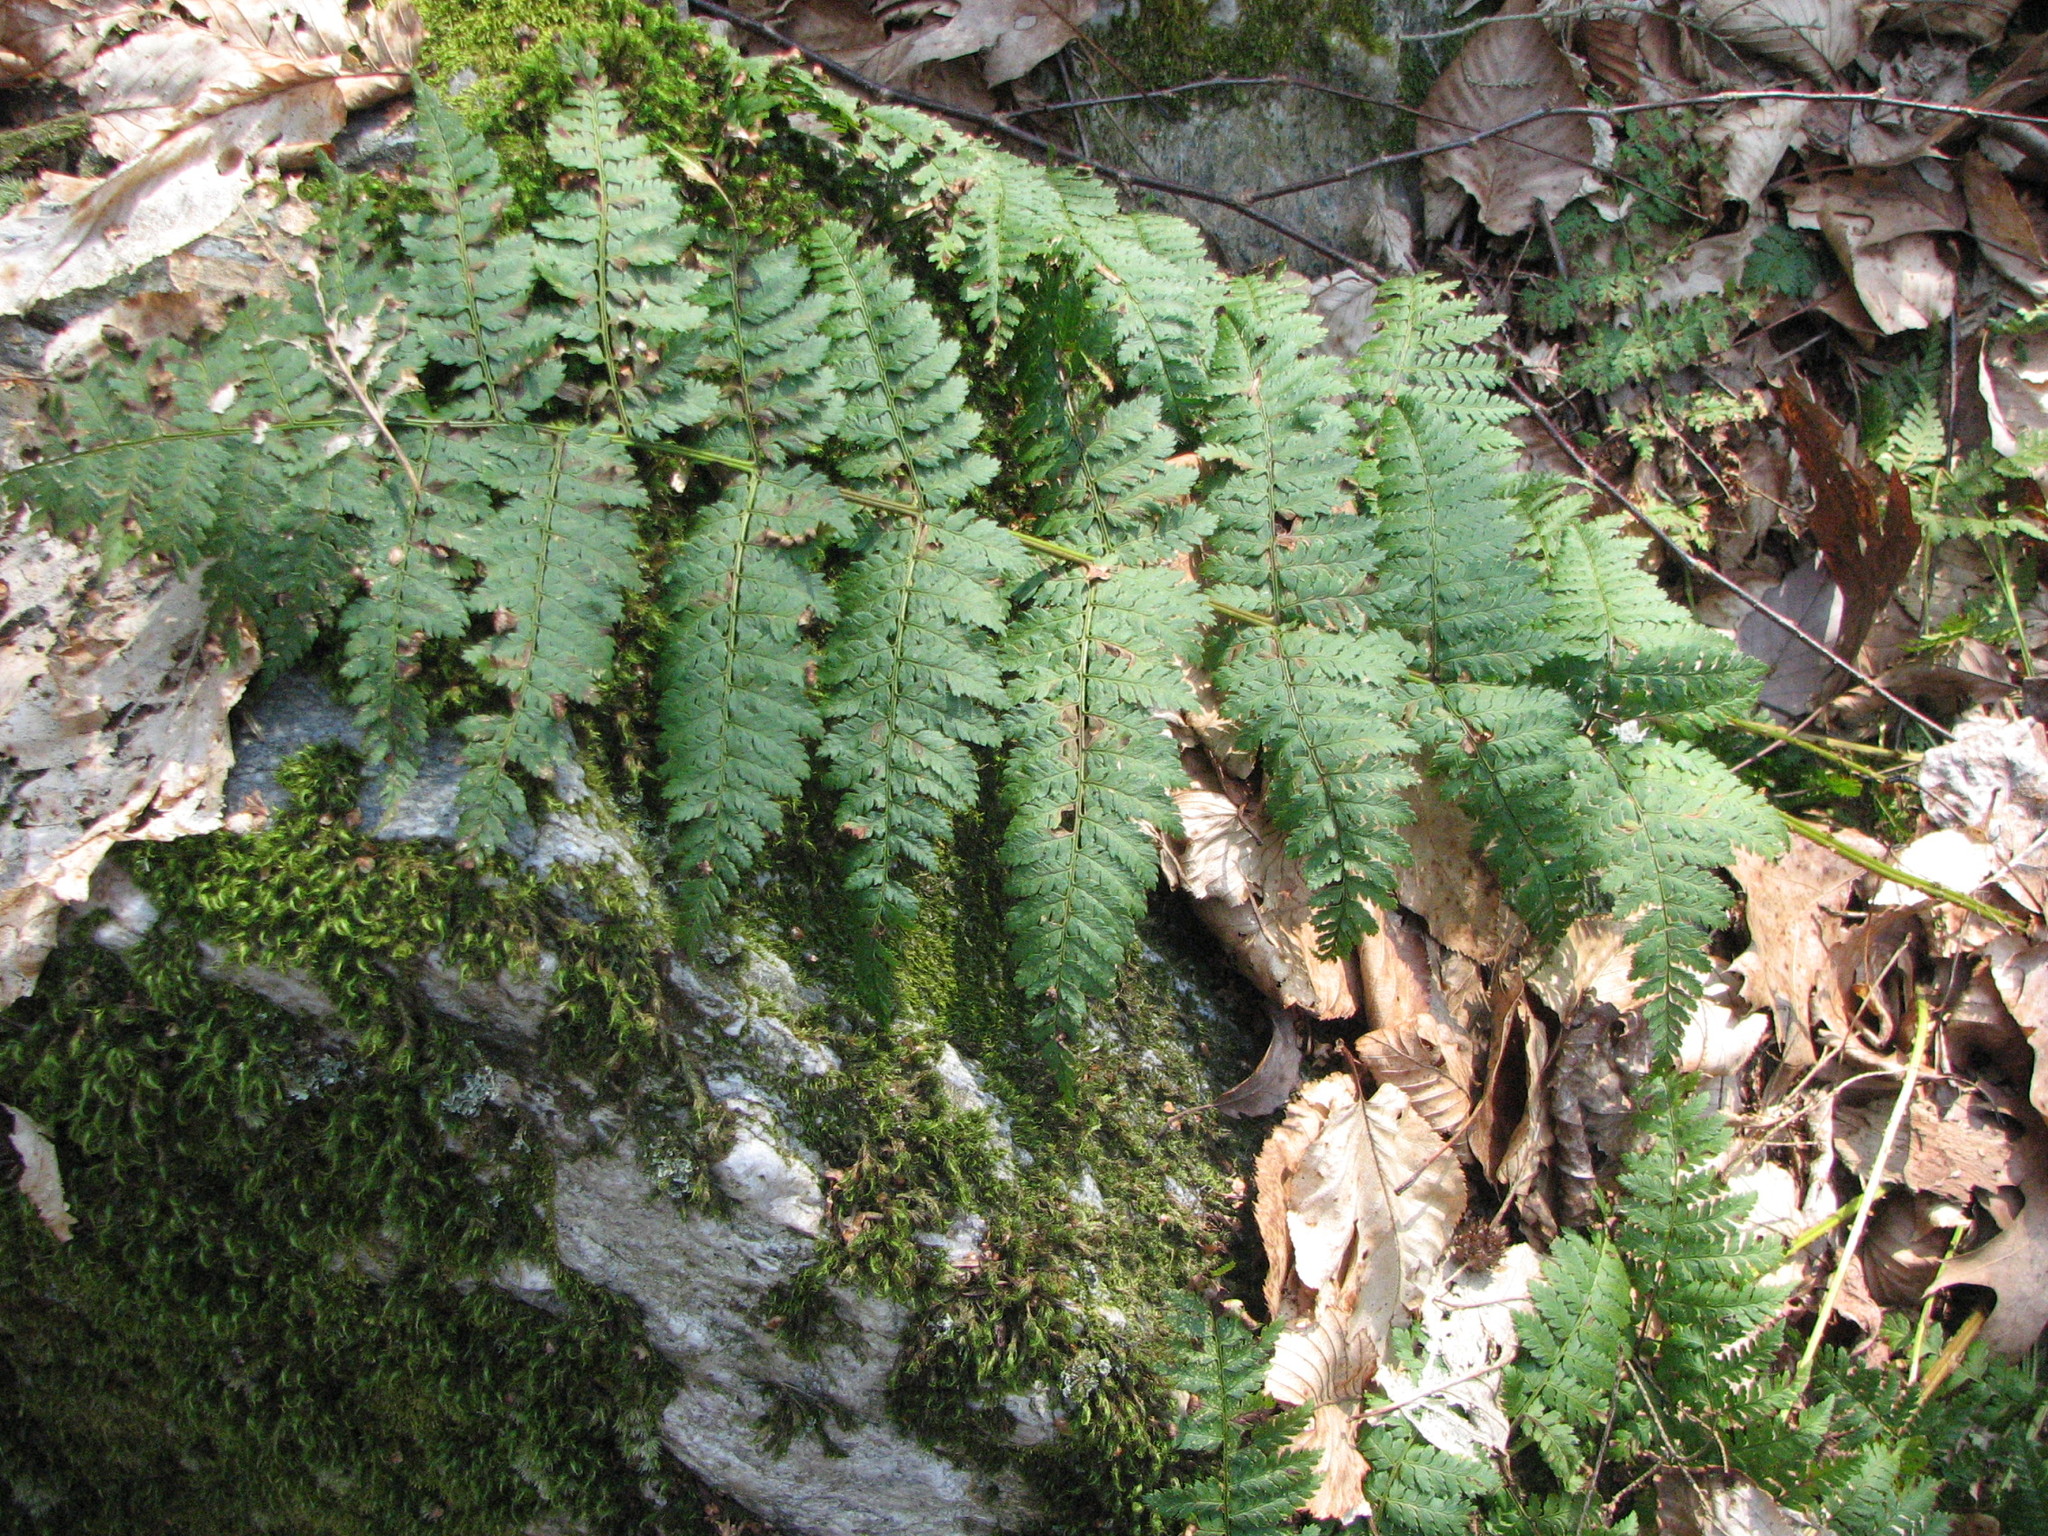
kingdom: Plantae
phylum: Tracheophyta
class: Polypodiopsida
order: Polypodiales
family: Dryopteridaceae
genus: Dryopteris
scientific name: Dryopteris intermedia
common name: Evergreen wood fern
